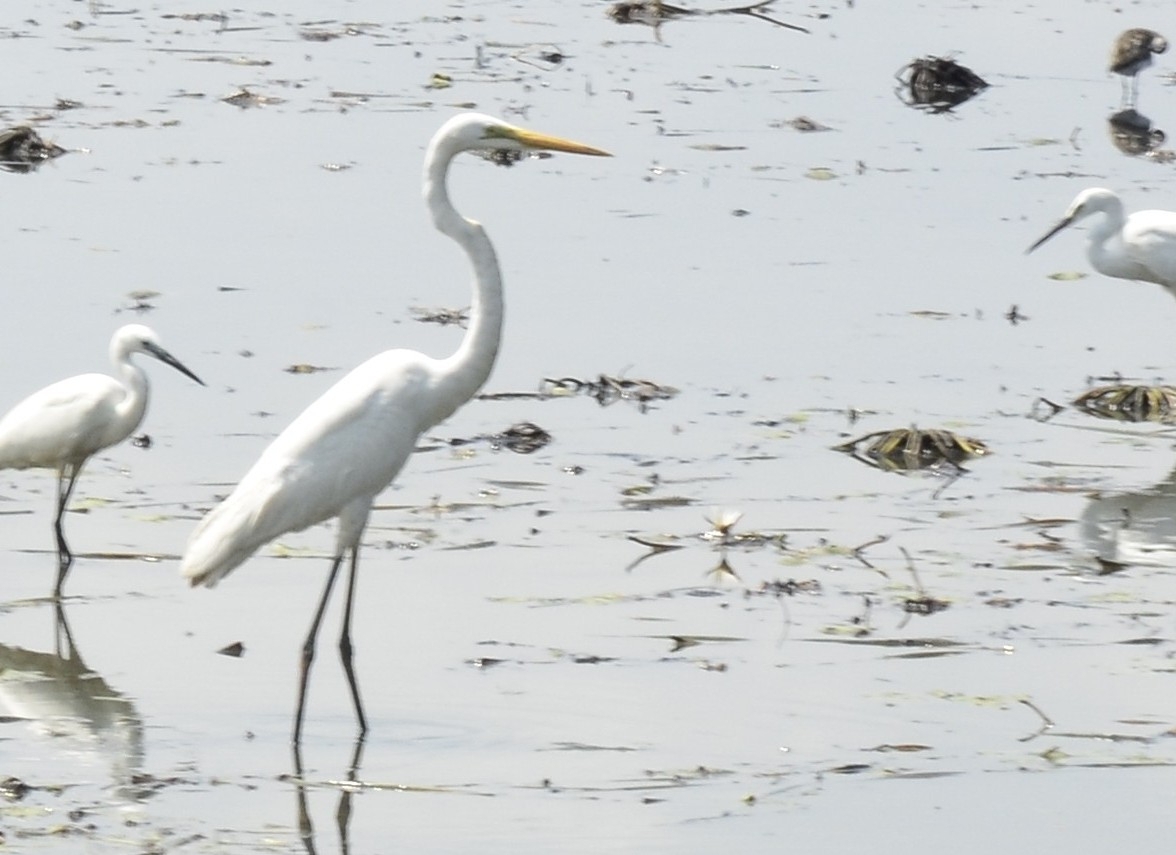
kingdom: Animalia
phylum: Chordata
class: Aves
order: Pelecaniformes
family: Ardeidae
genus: Ardea
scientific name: Ardea alba
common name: Great egret
